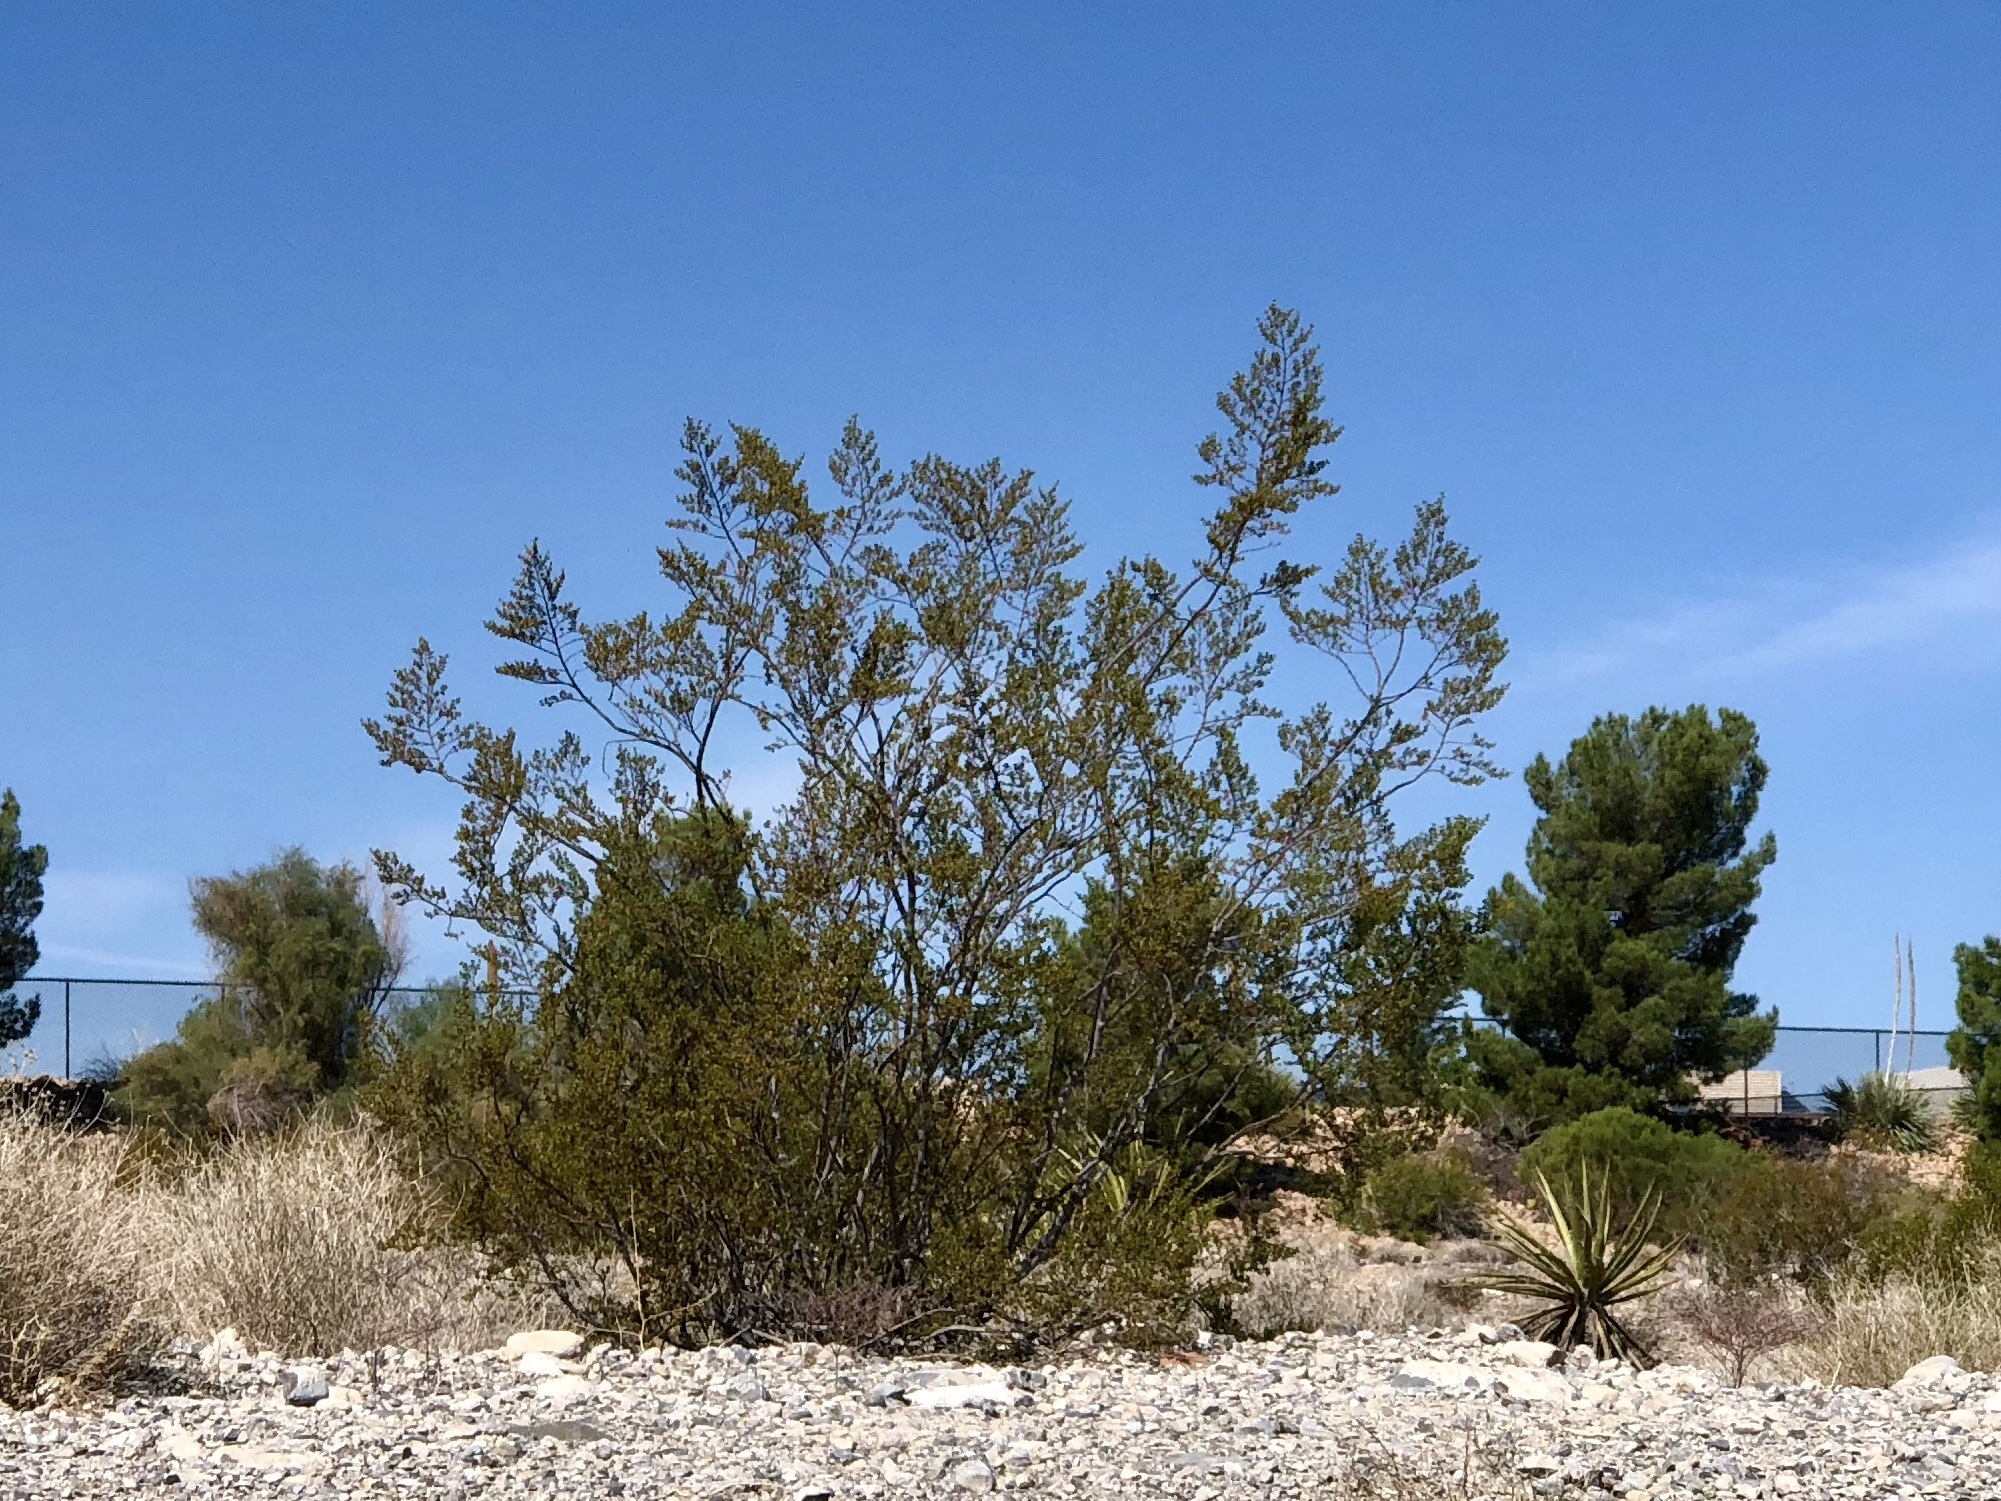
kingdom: Plantae
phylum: Tracheophyta
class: Magnoliopsida
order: Zygophyllales
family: Zygophyllaceae
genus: Larrea
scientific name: Larrea tridentata
